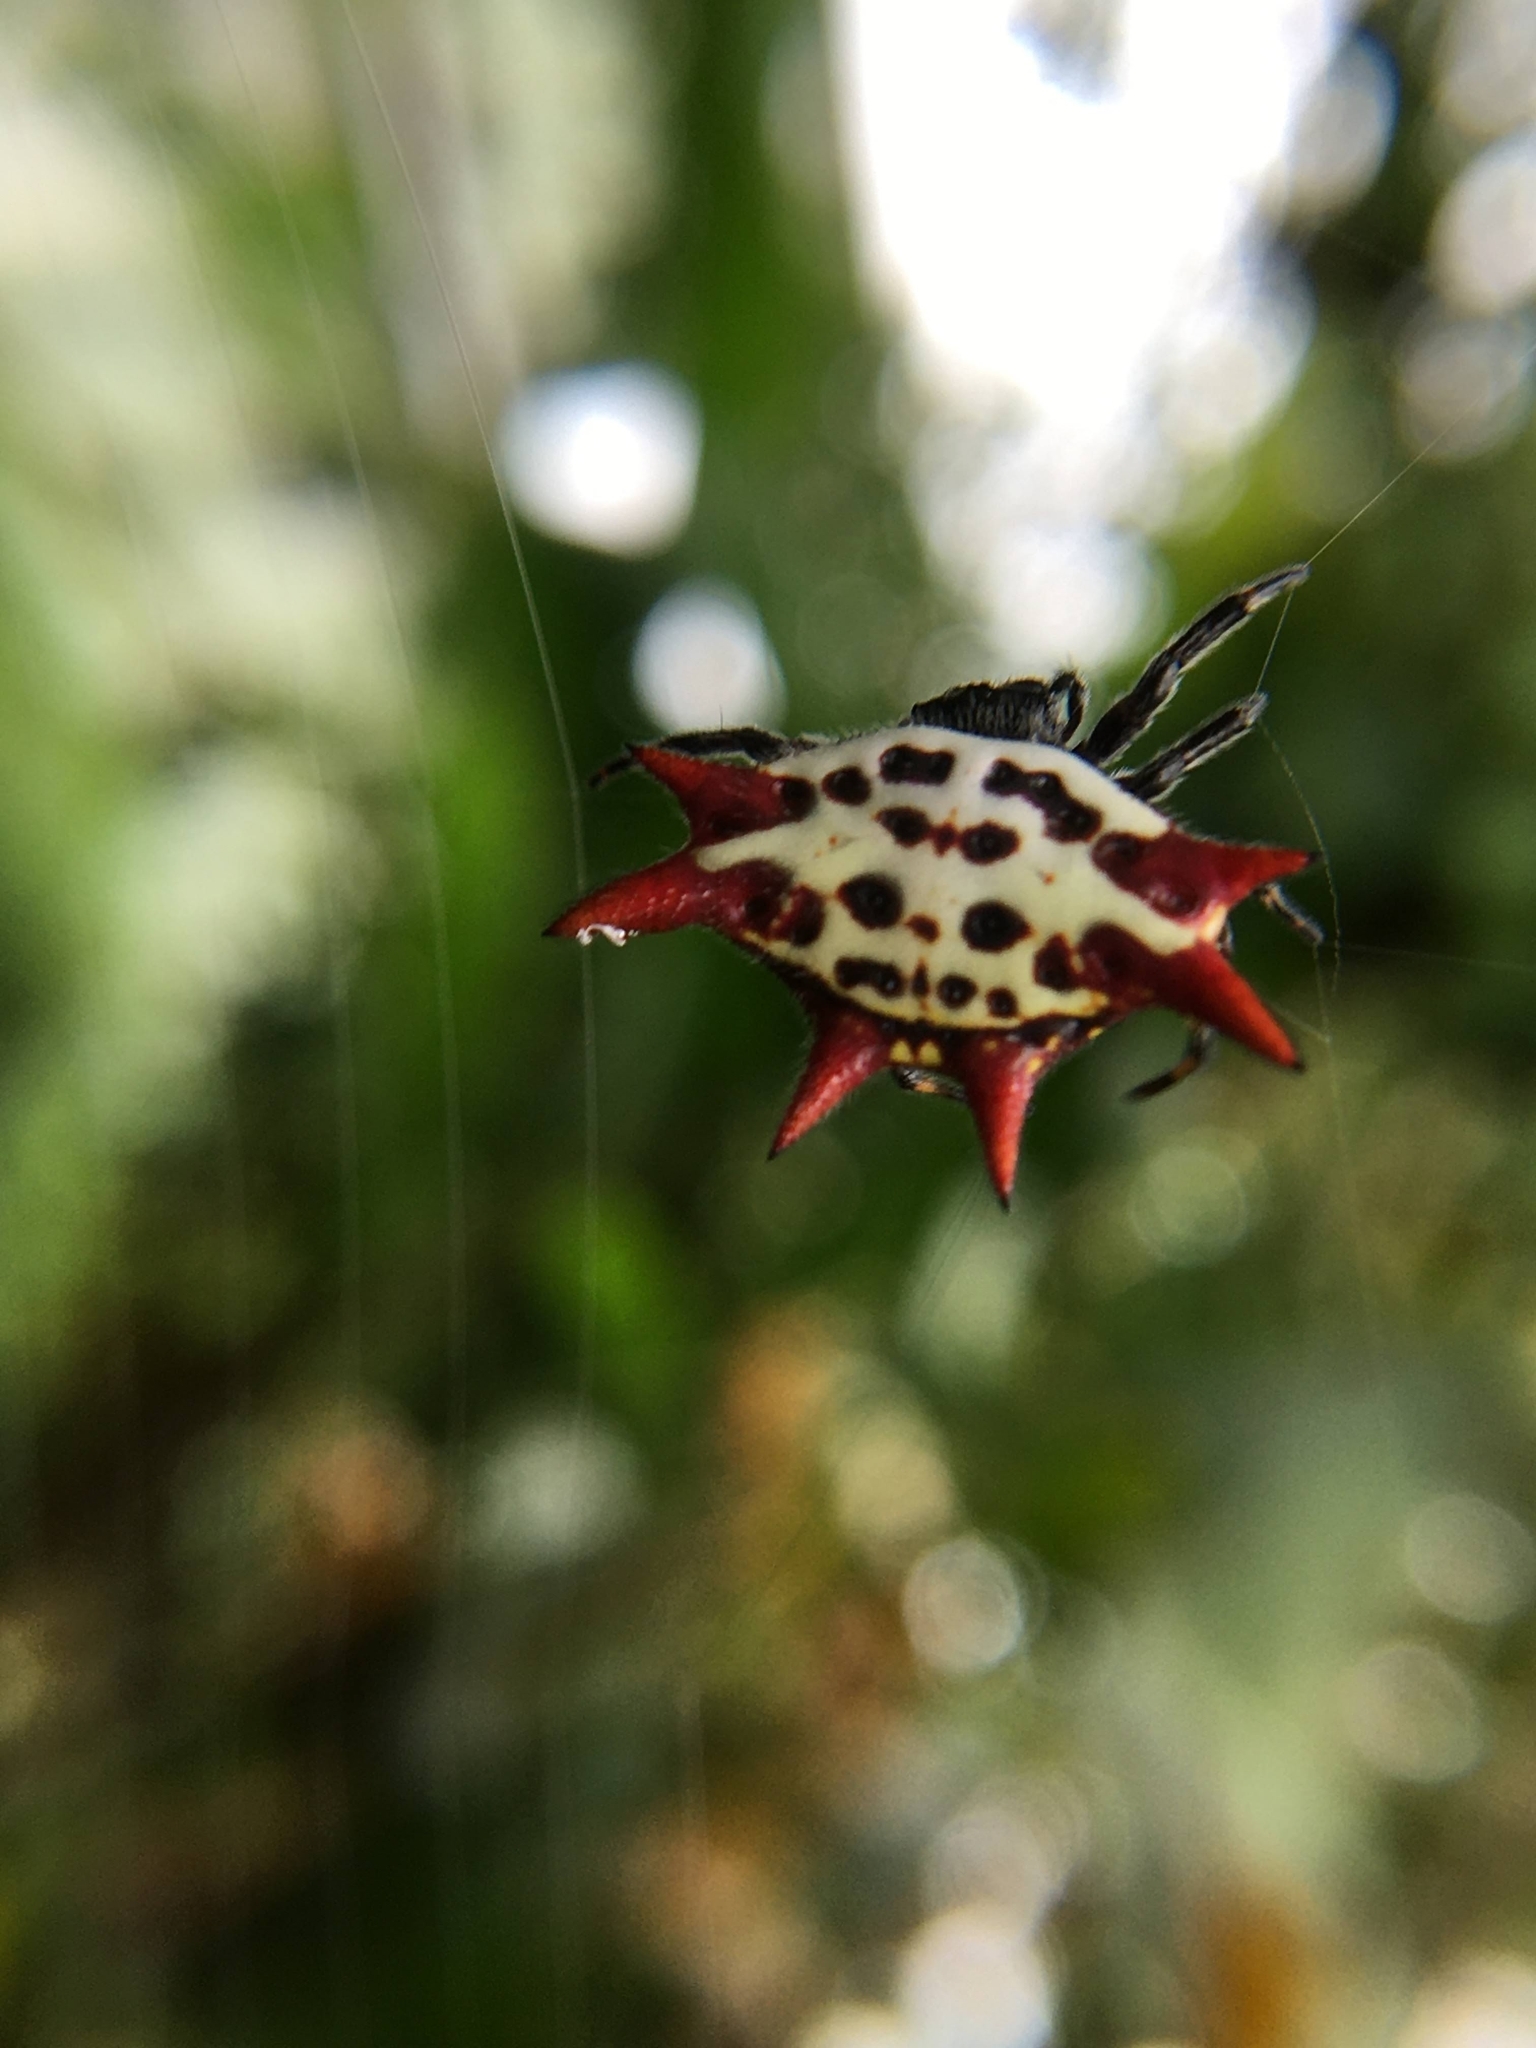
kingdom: Animalia
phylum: Arthropoda
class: Arachnida
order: Araneae
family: Araneidae
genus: Gasteracantha
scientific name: Gasteracantha cancriformis
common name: Orb weavers
